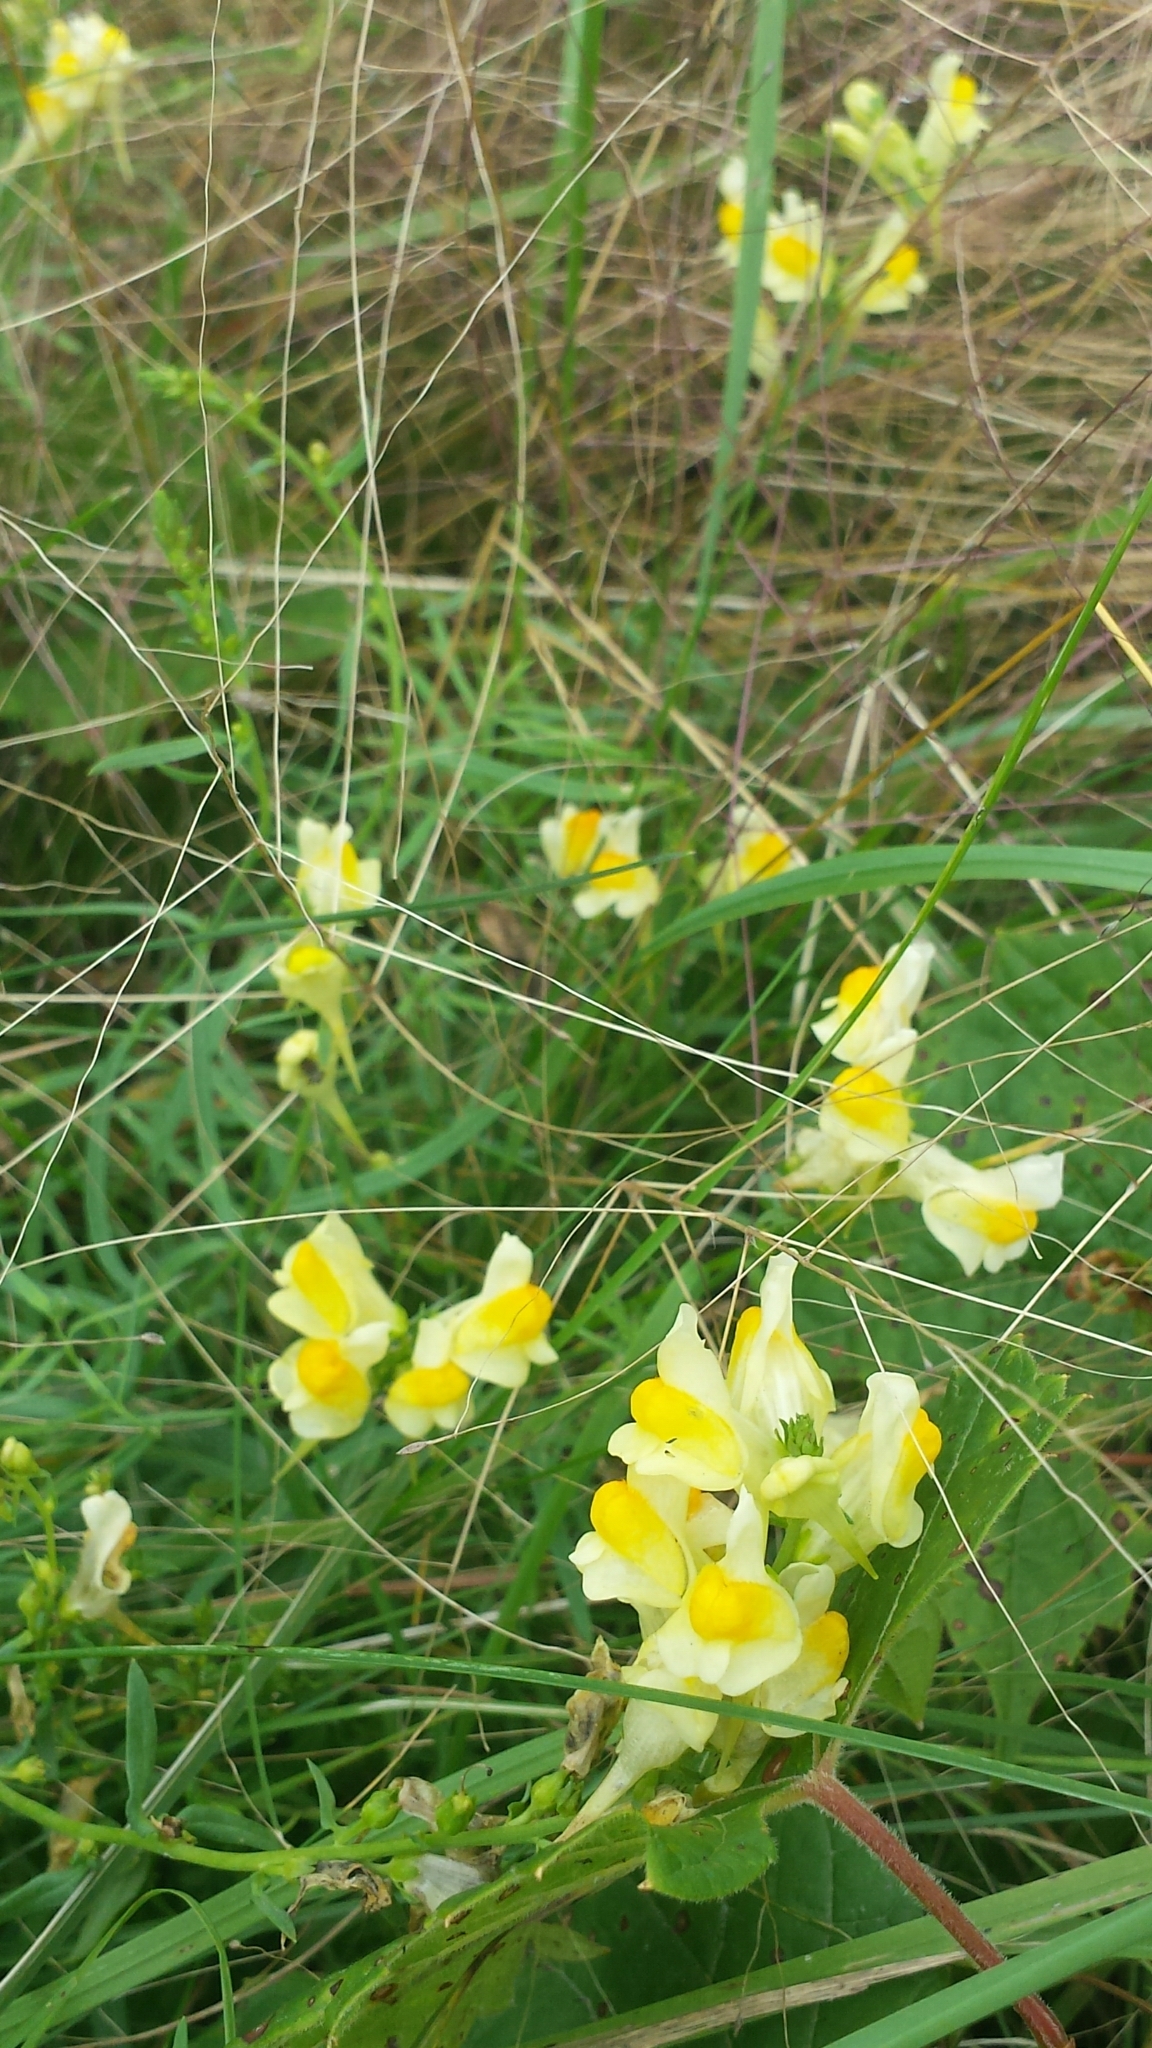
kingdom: Plantae
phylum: Tracheophyta
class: Magnoliopsida
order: Lamiales
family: Plantaginaceae
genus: Linaria
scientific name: Linaria vulgaris
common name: Butter and eggs
